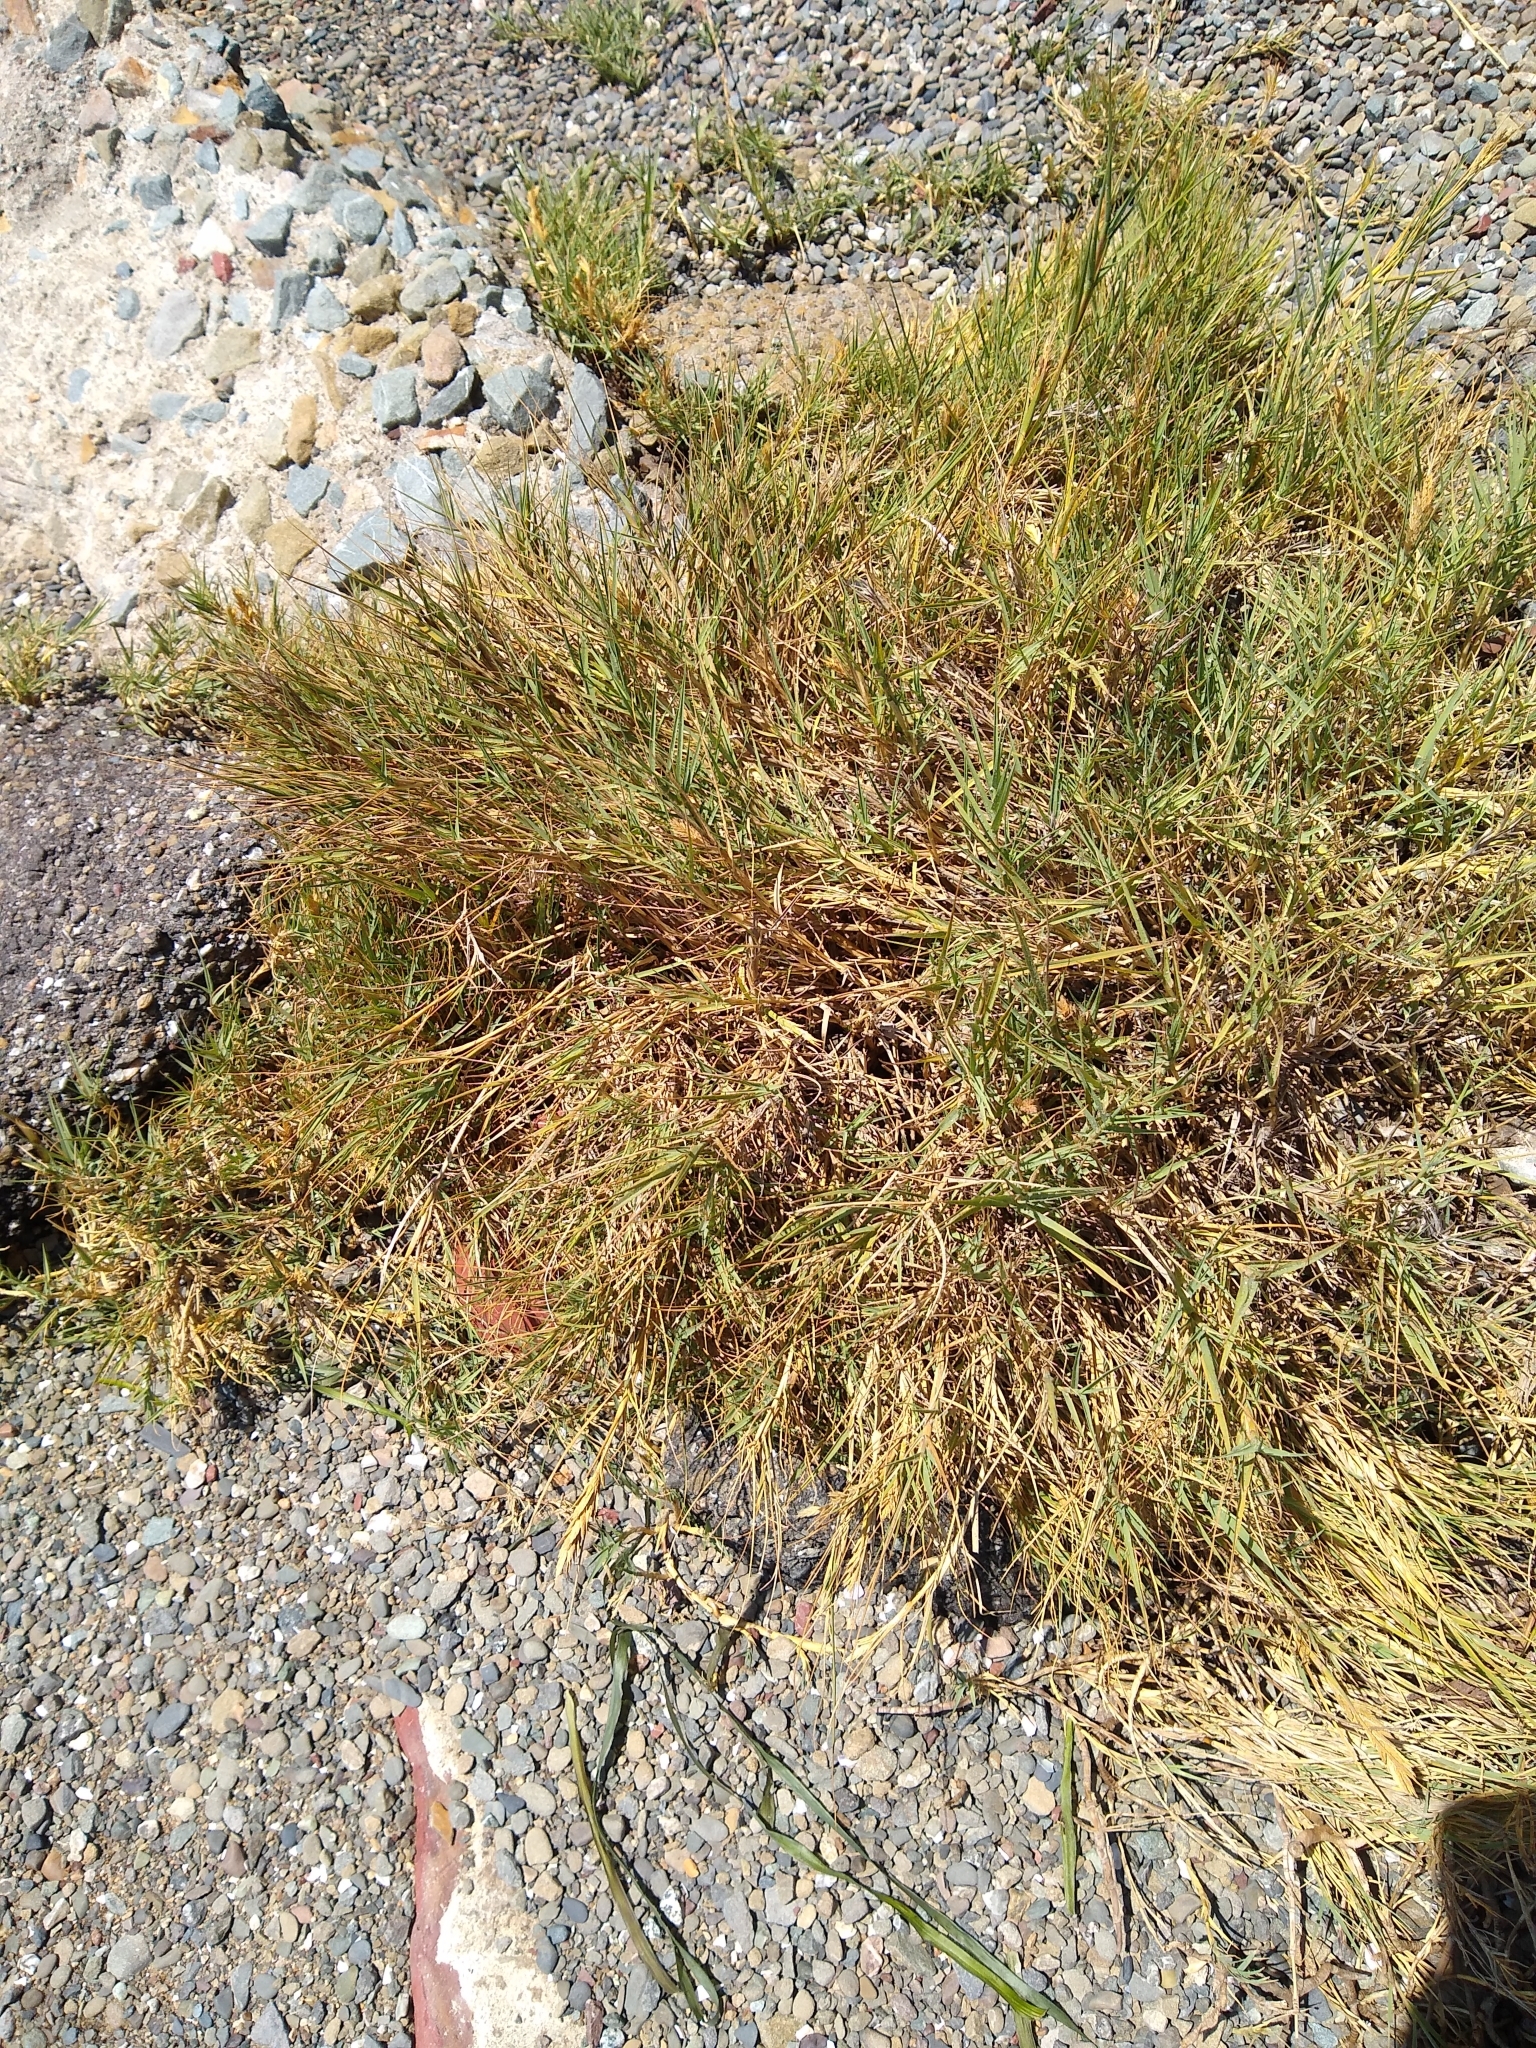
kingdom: Plantae
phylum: Tracheophyta
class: Liliopsida
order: Poales
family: Poaceae
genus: Distichlis
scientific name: Distichlis spicata
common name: Saltgrass
